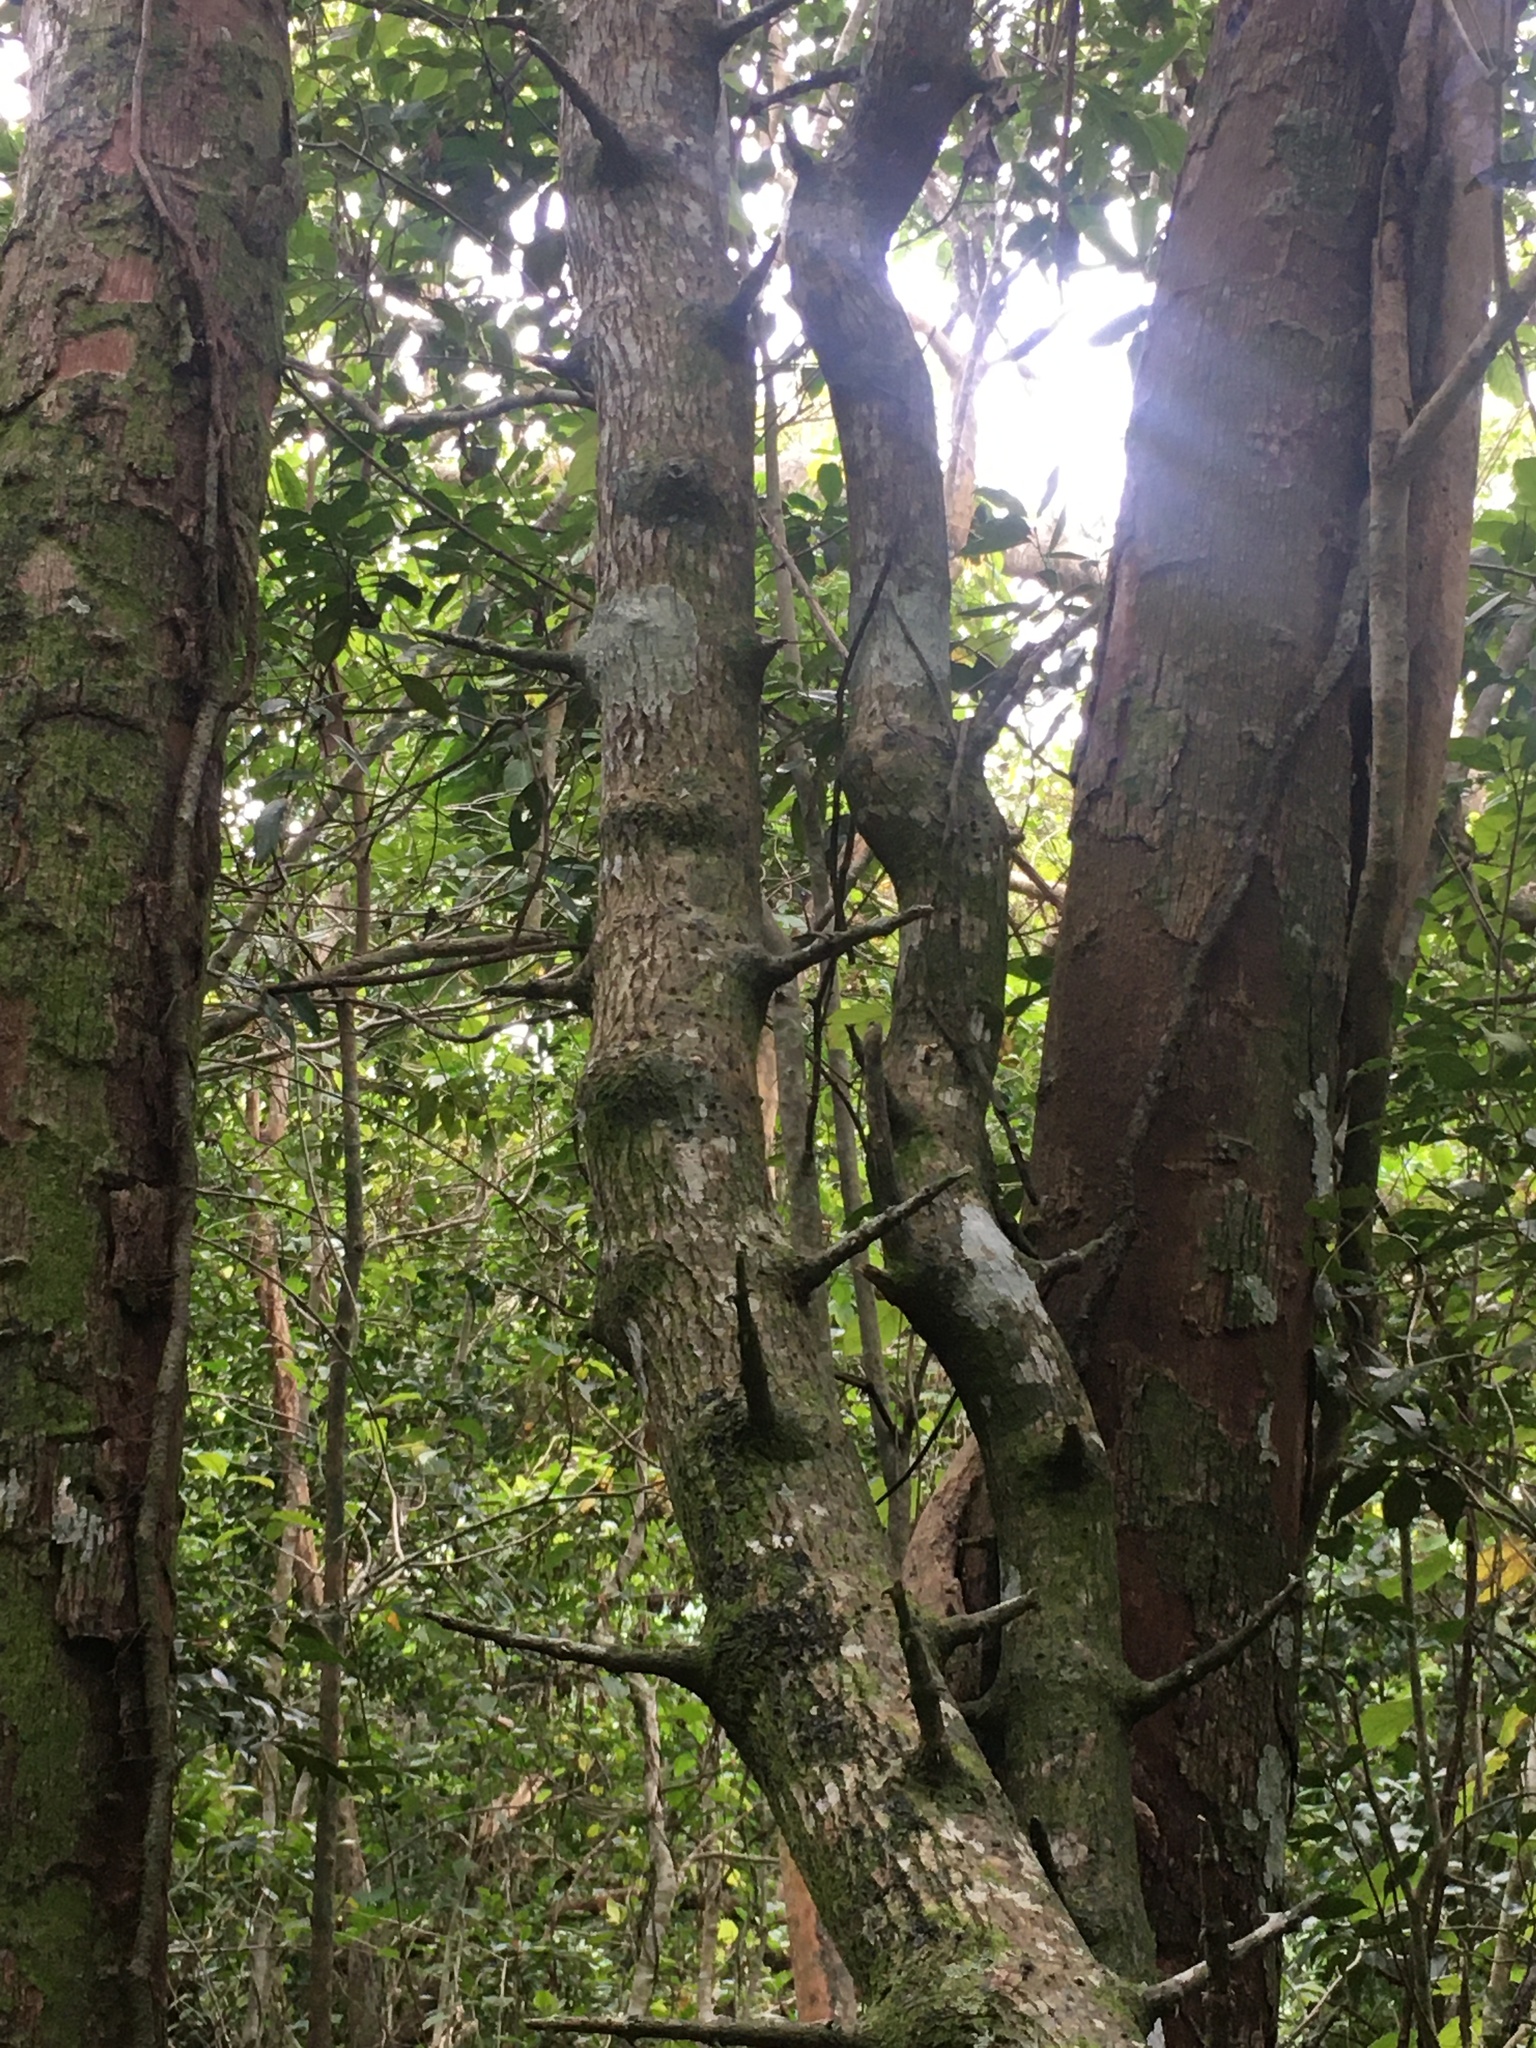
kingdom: Plantae
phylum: Tracheophyta
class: Magnoliopsida
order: Caryophyllales
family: Nyctaginaceae
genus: Pisonia
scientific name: Pisonia aculeata
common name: Cockspur vine
